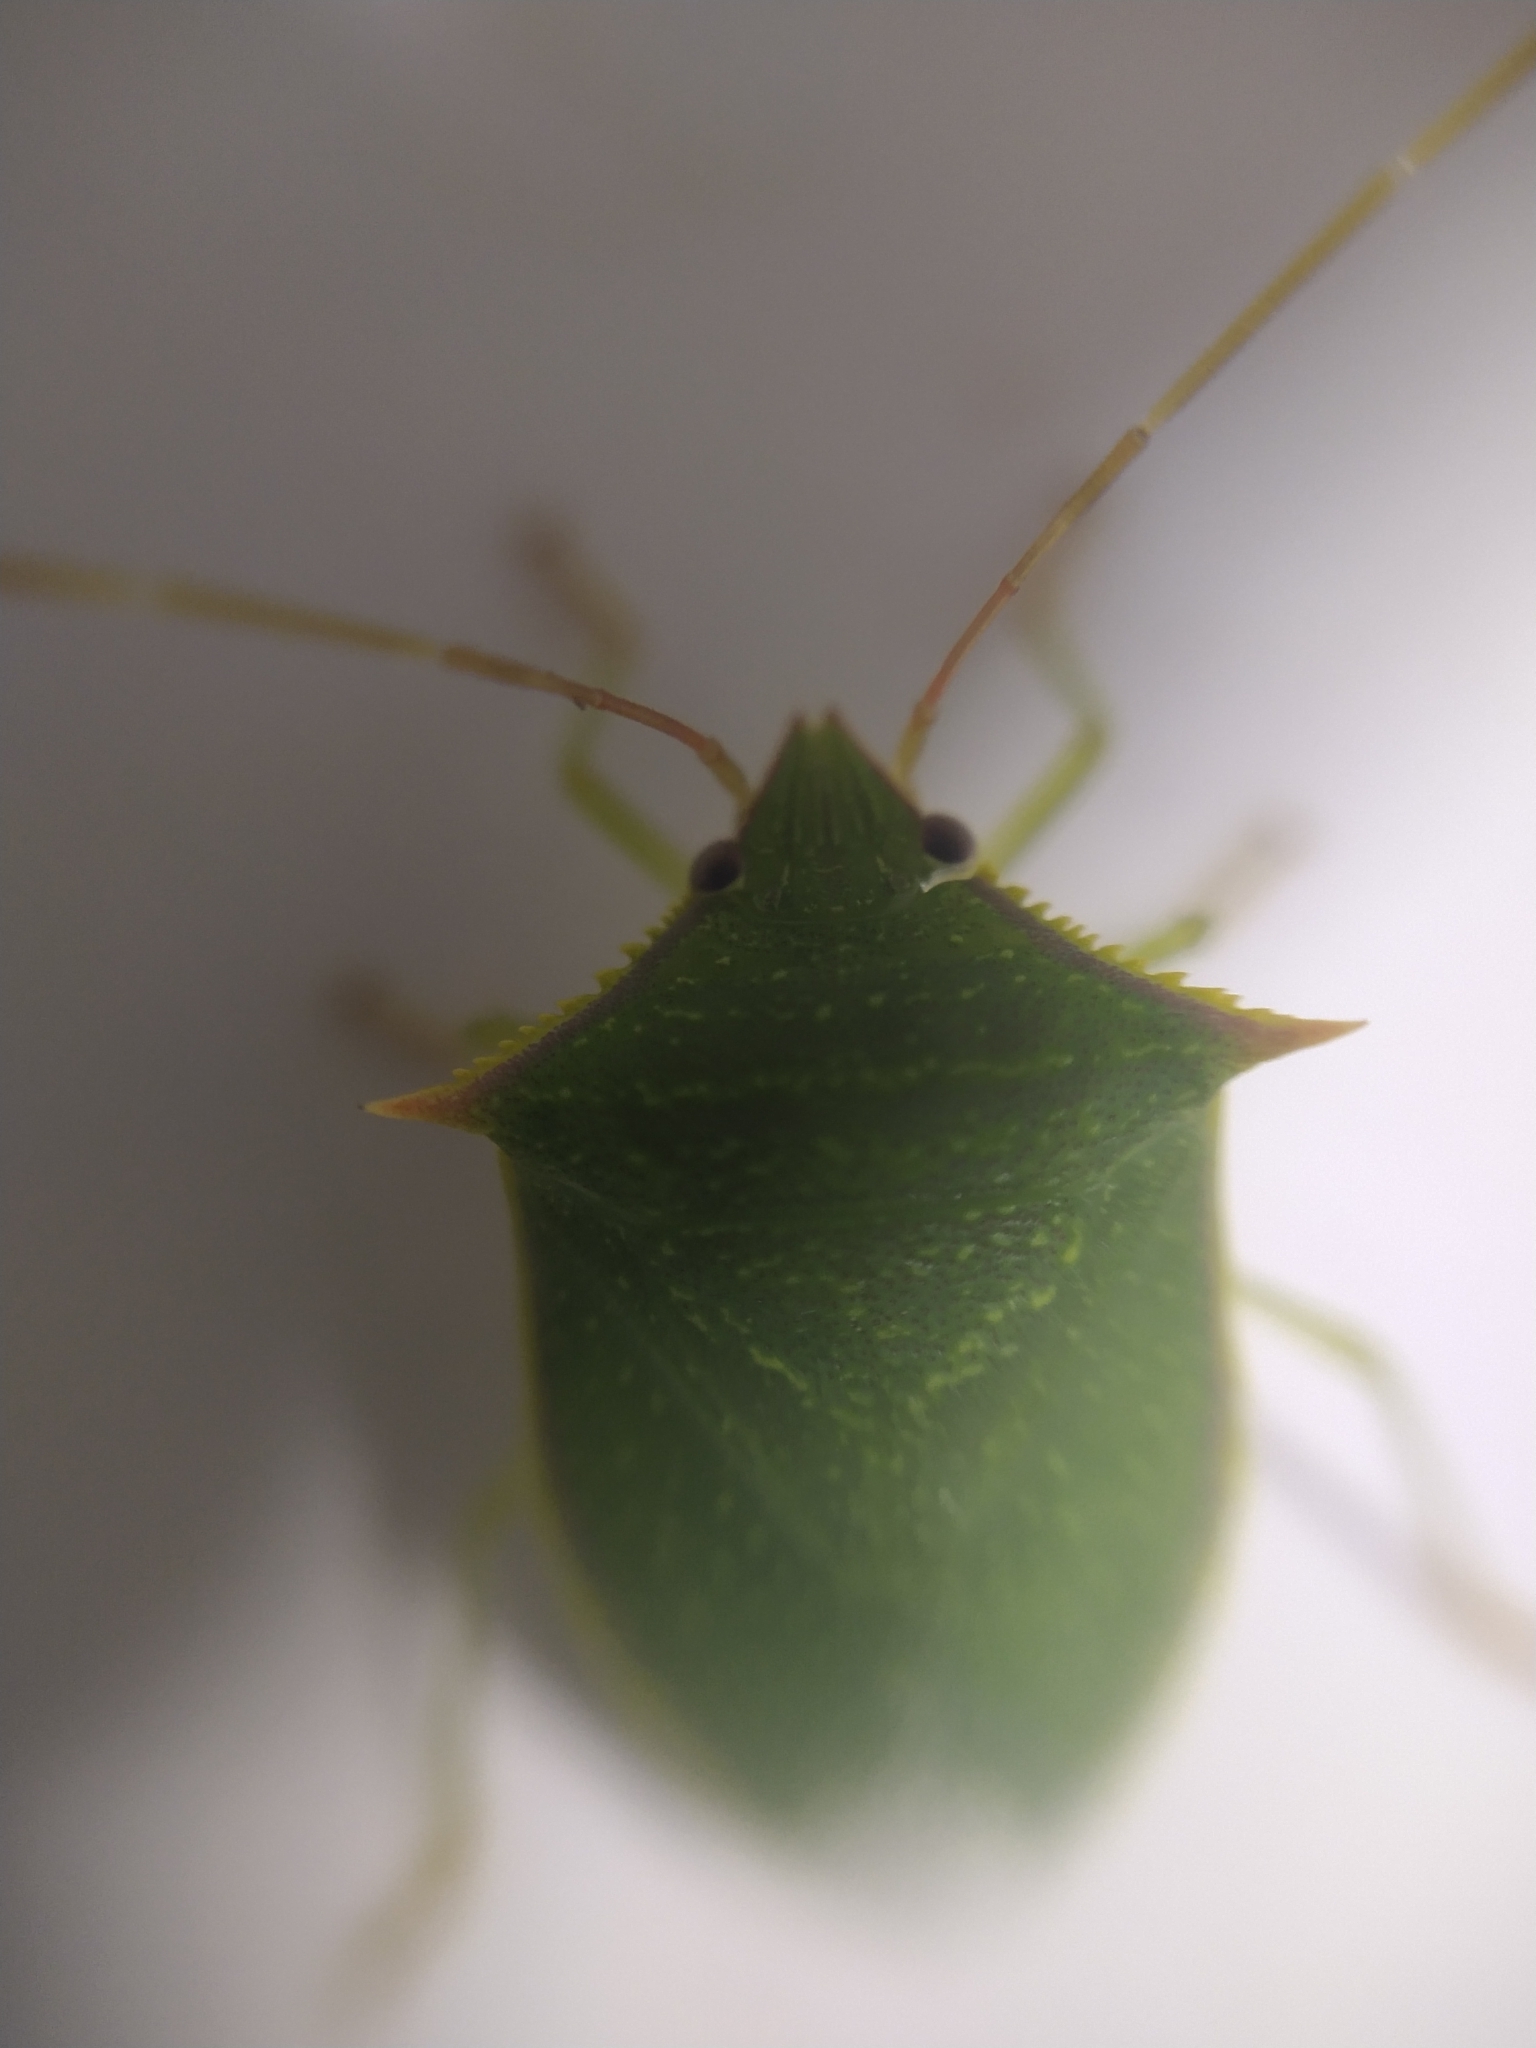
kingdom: Animalia
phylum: Arthropoda
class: Insecta
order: Hemiptera
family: Pentatomidae
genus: Loxa
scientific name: Loxa viridis
